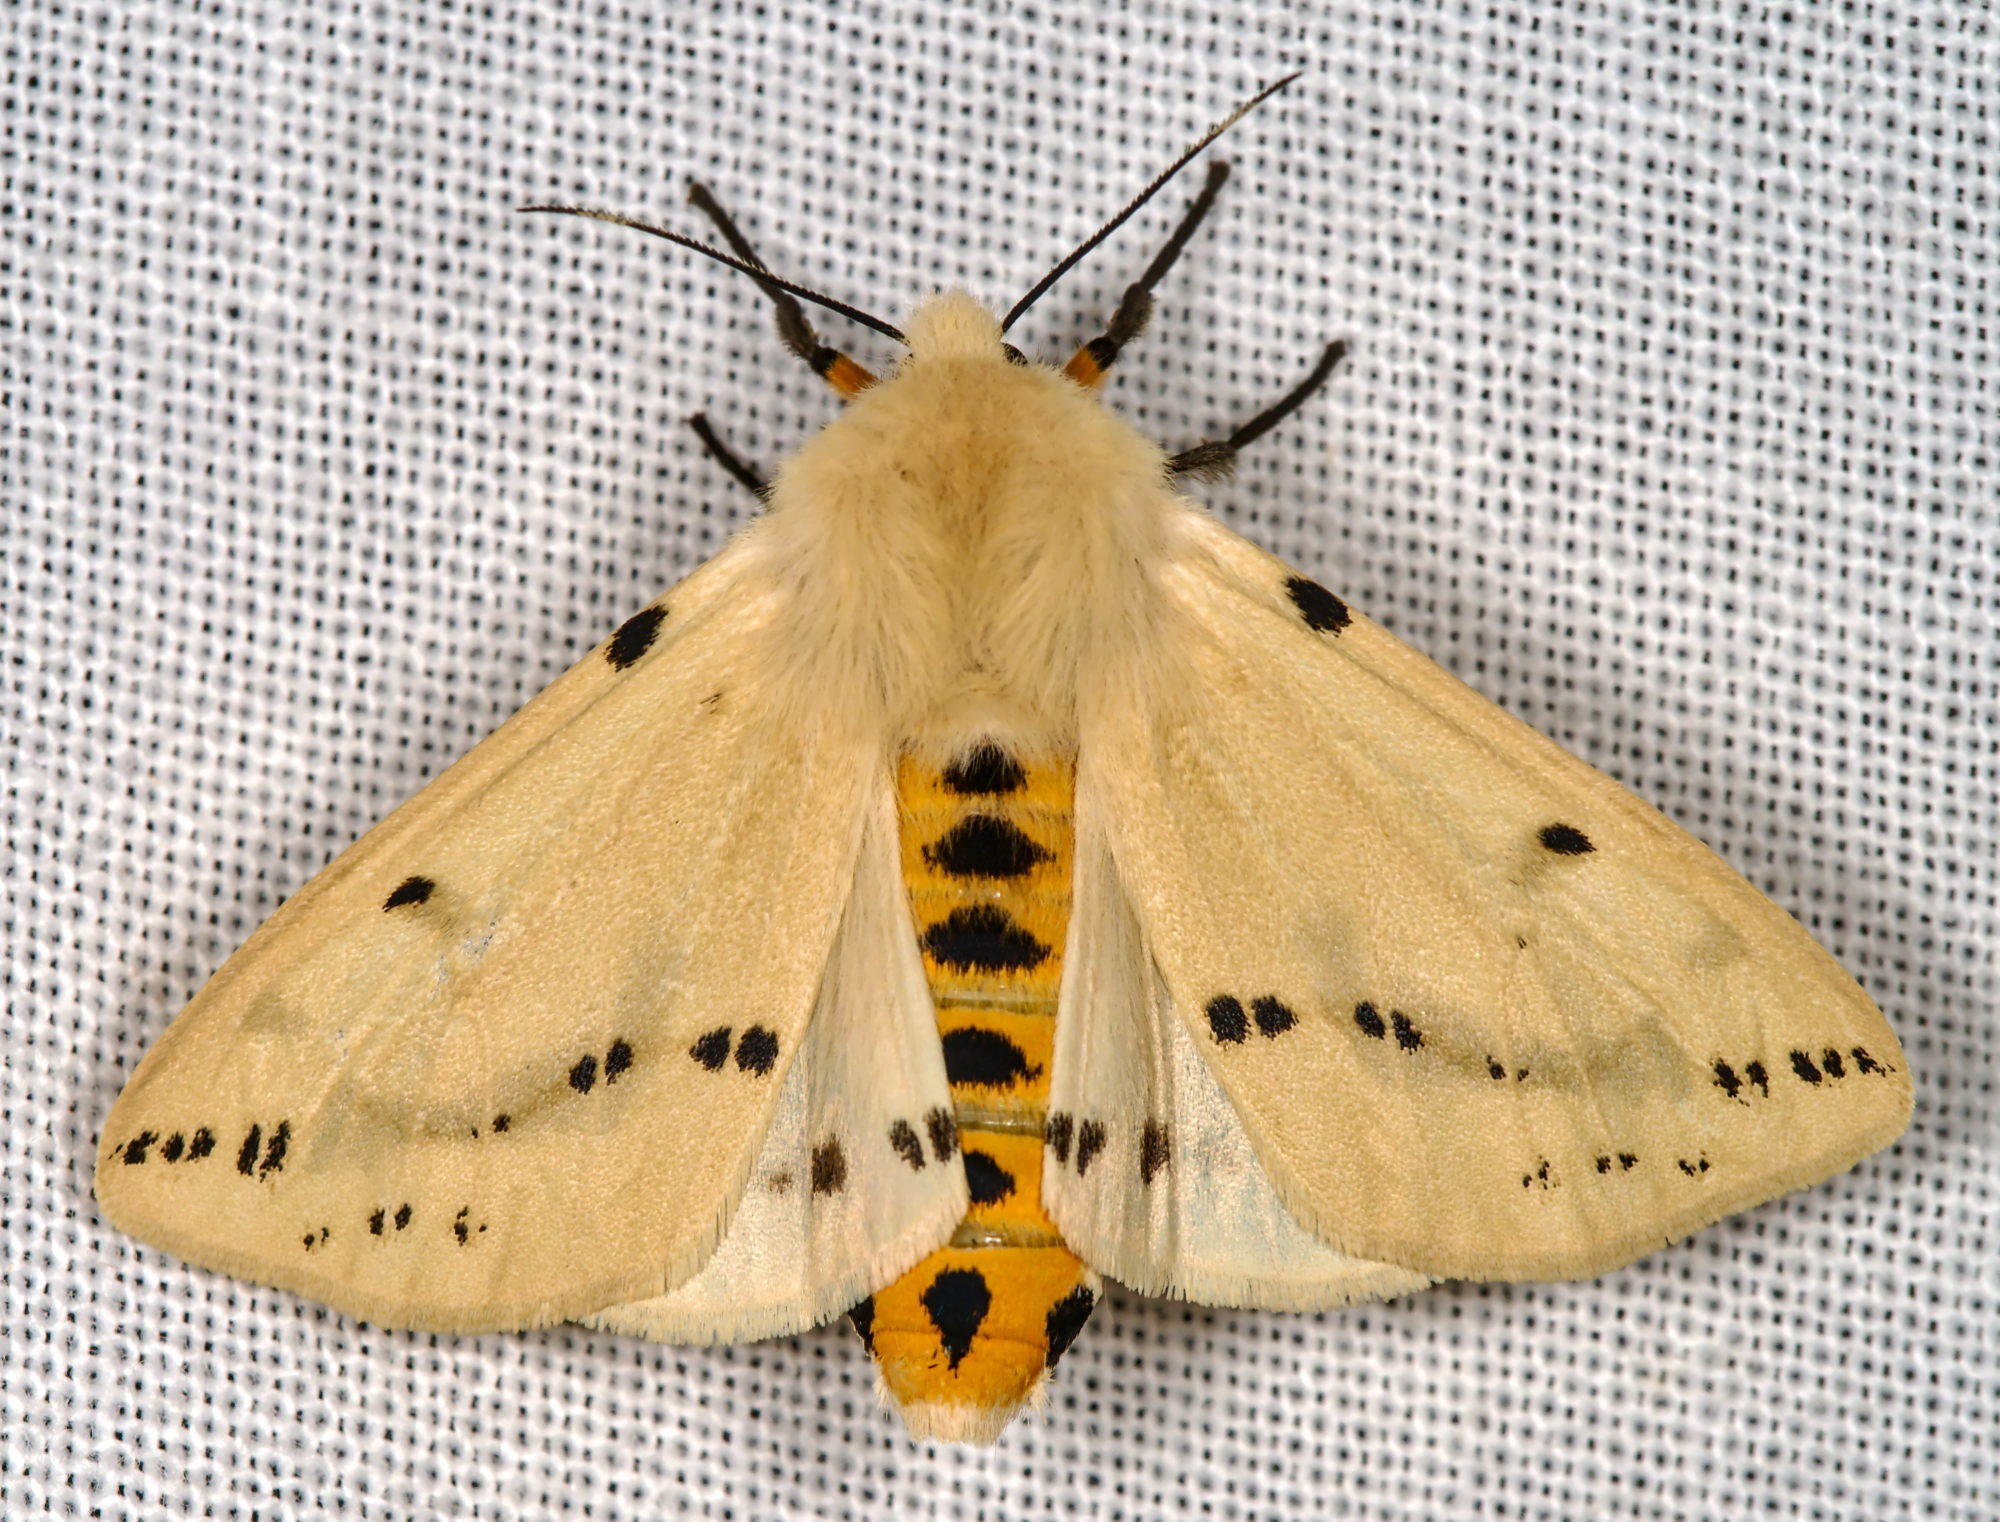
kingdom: Animalia
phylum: Arthropoda
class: Insecta
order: Lepidoptera
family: Erebidae
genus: Spilarctia
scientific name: Spilarctia lutea
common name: Buff ermine
